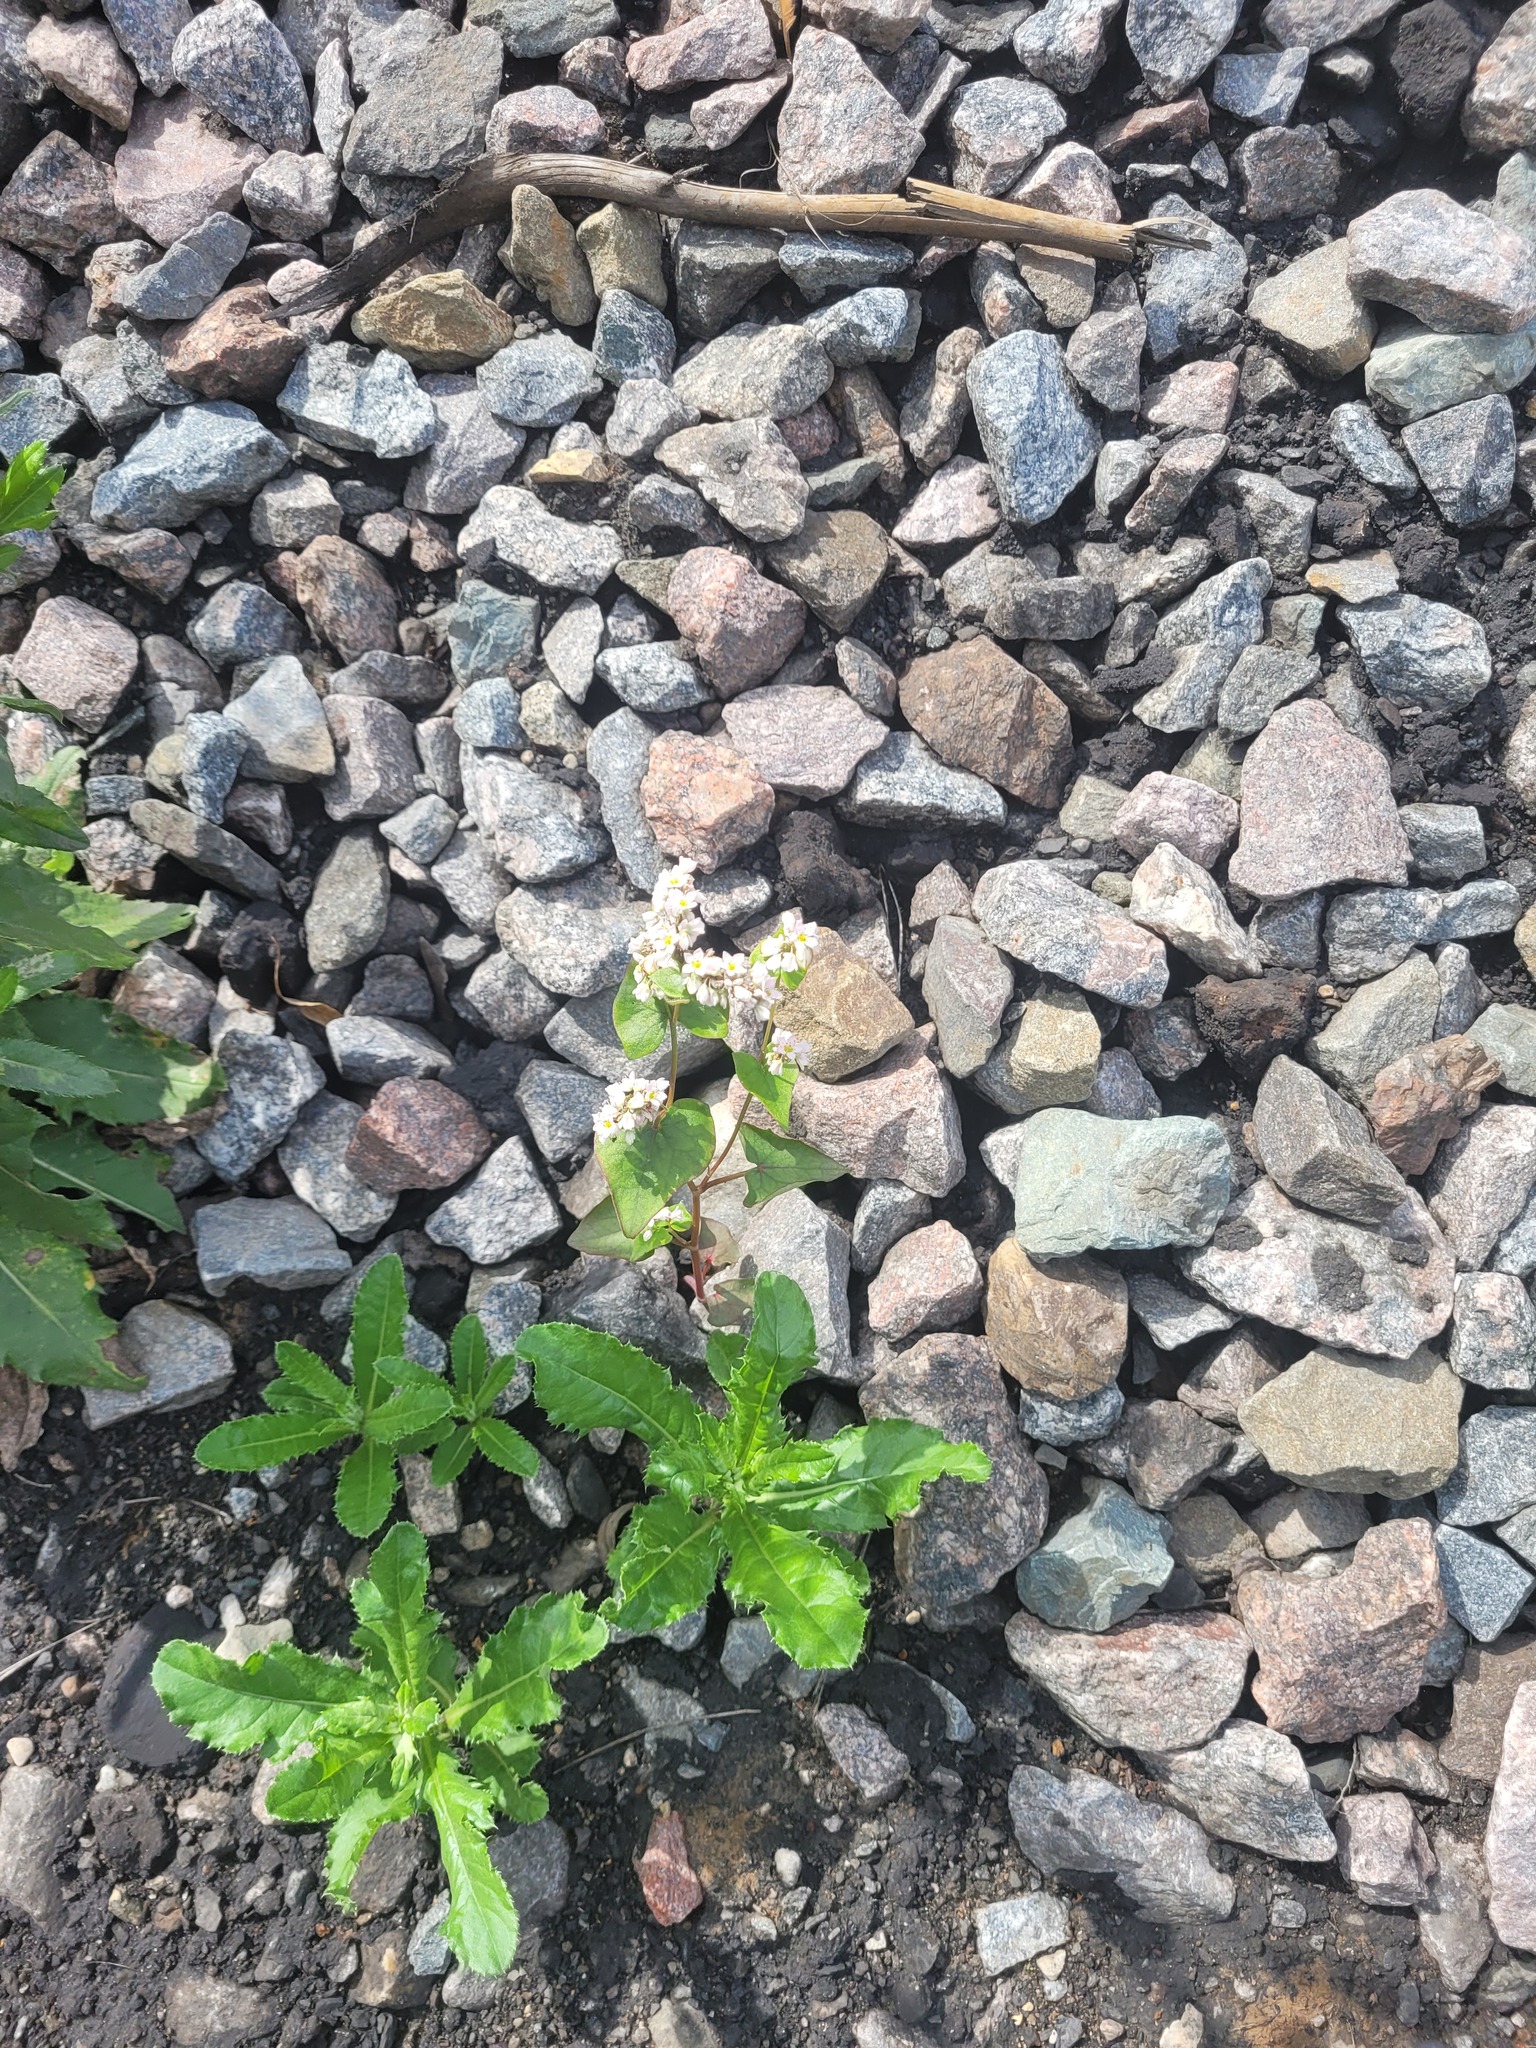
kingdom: Plantae
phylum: Tracheophyta
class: Magnoliopsida
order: Caryophyllales
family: Polygonaceae
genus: Fagopyrum
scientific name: Fagopyrum esculentum
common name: Buckwheat
